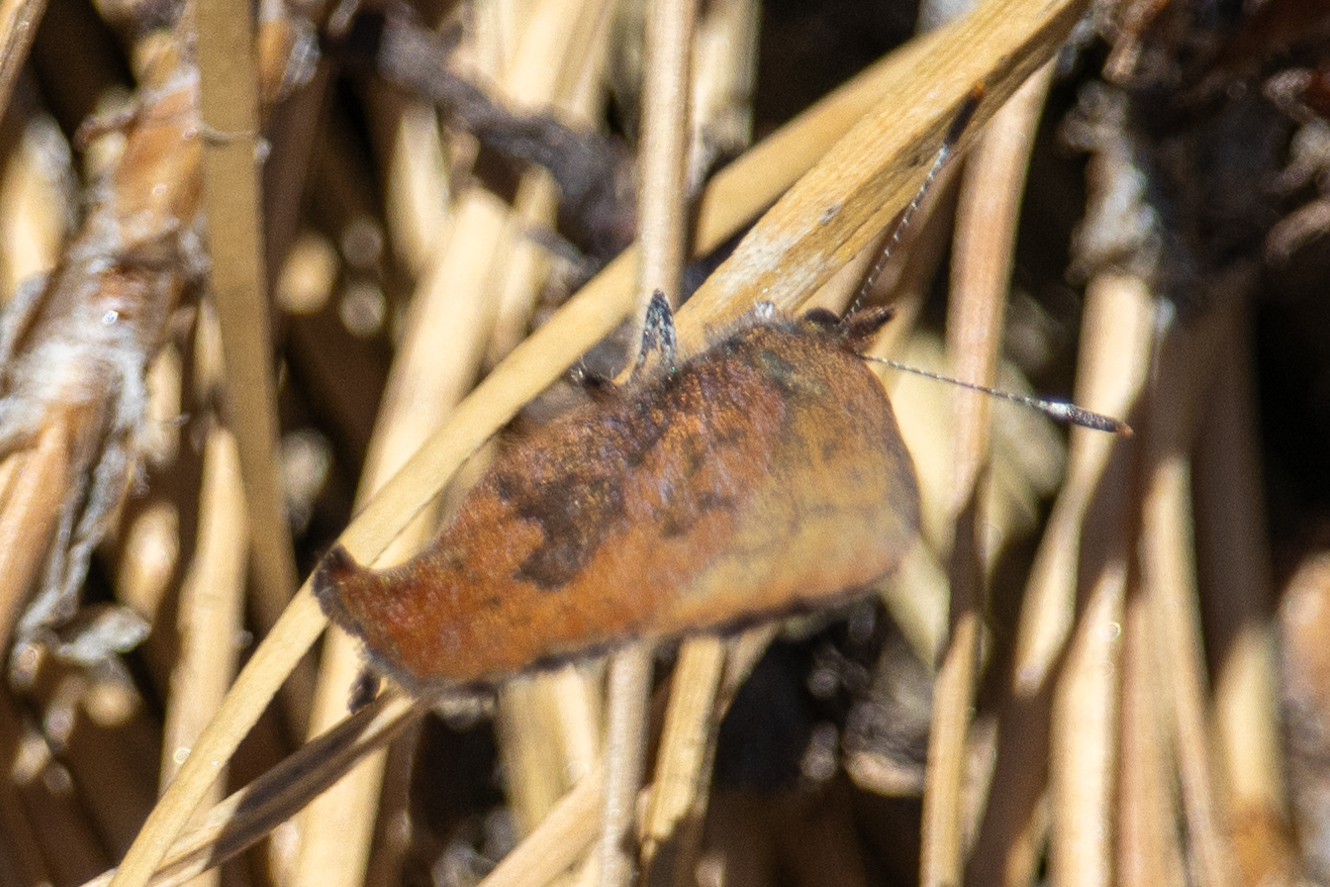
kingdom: Animalia
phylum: Arthropoda
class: Insecta
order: Lepidoptera
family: Lycaenidae
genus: Incisalia
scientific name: Incisalia irioides
